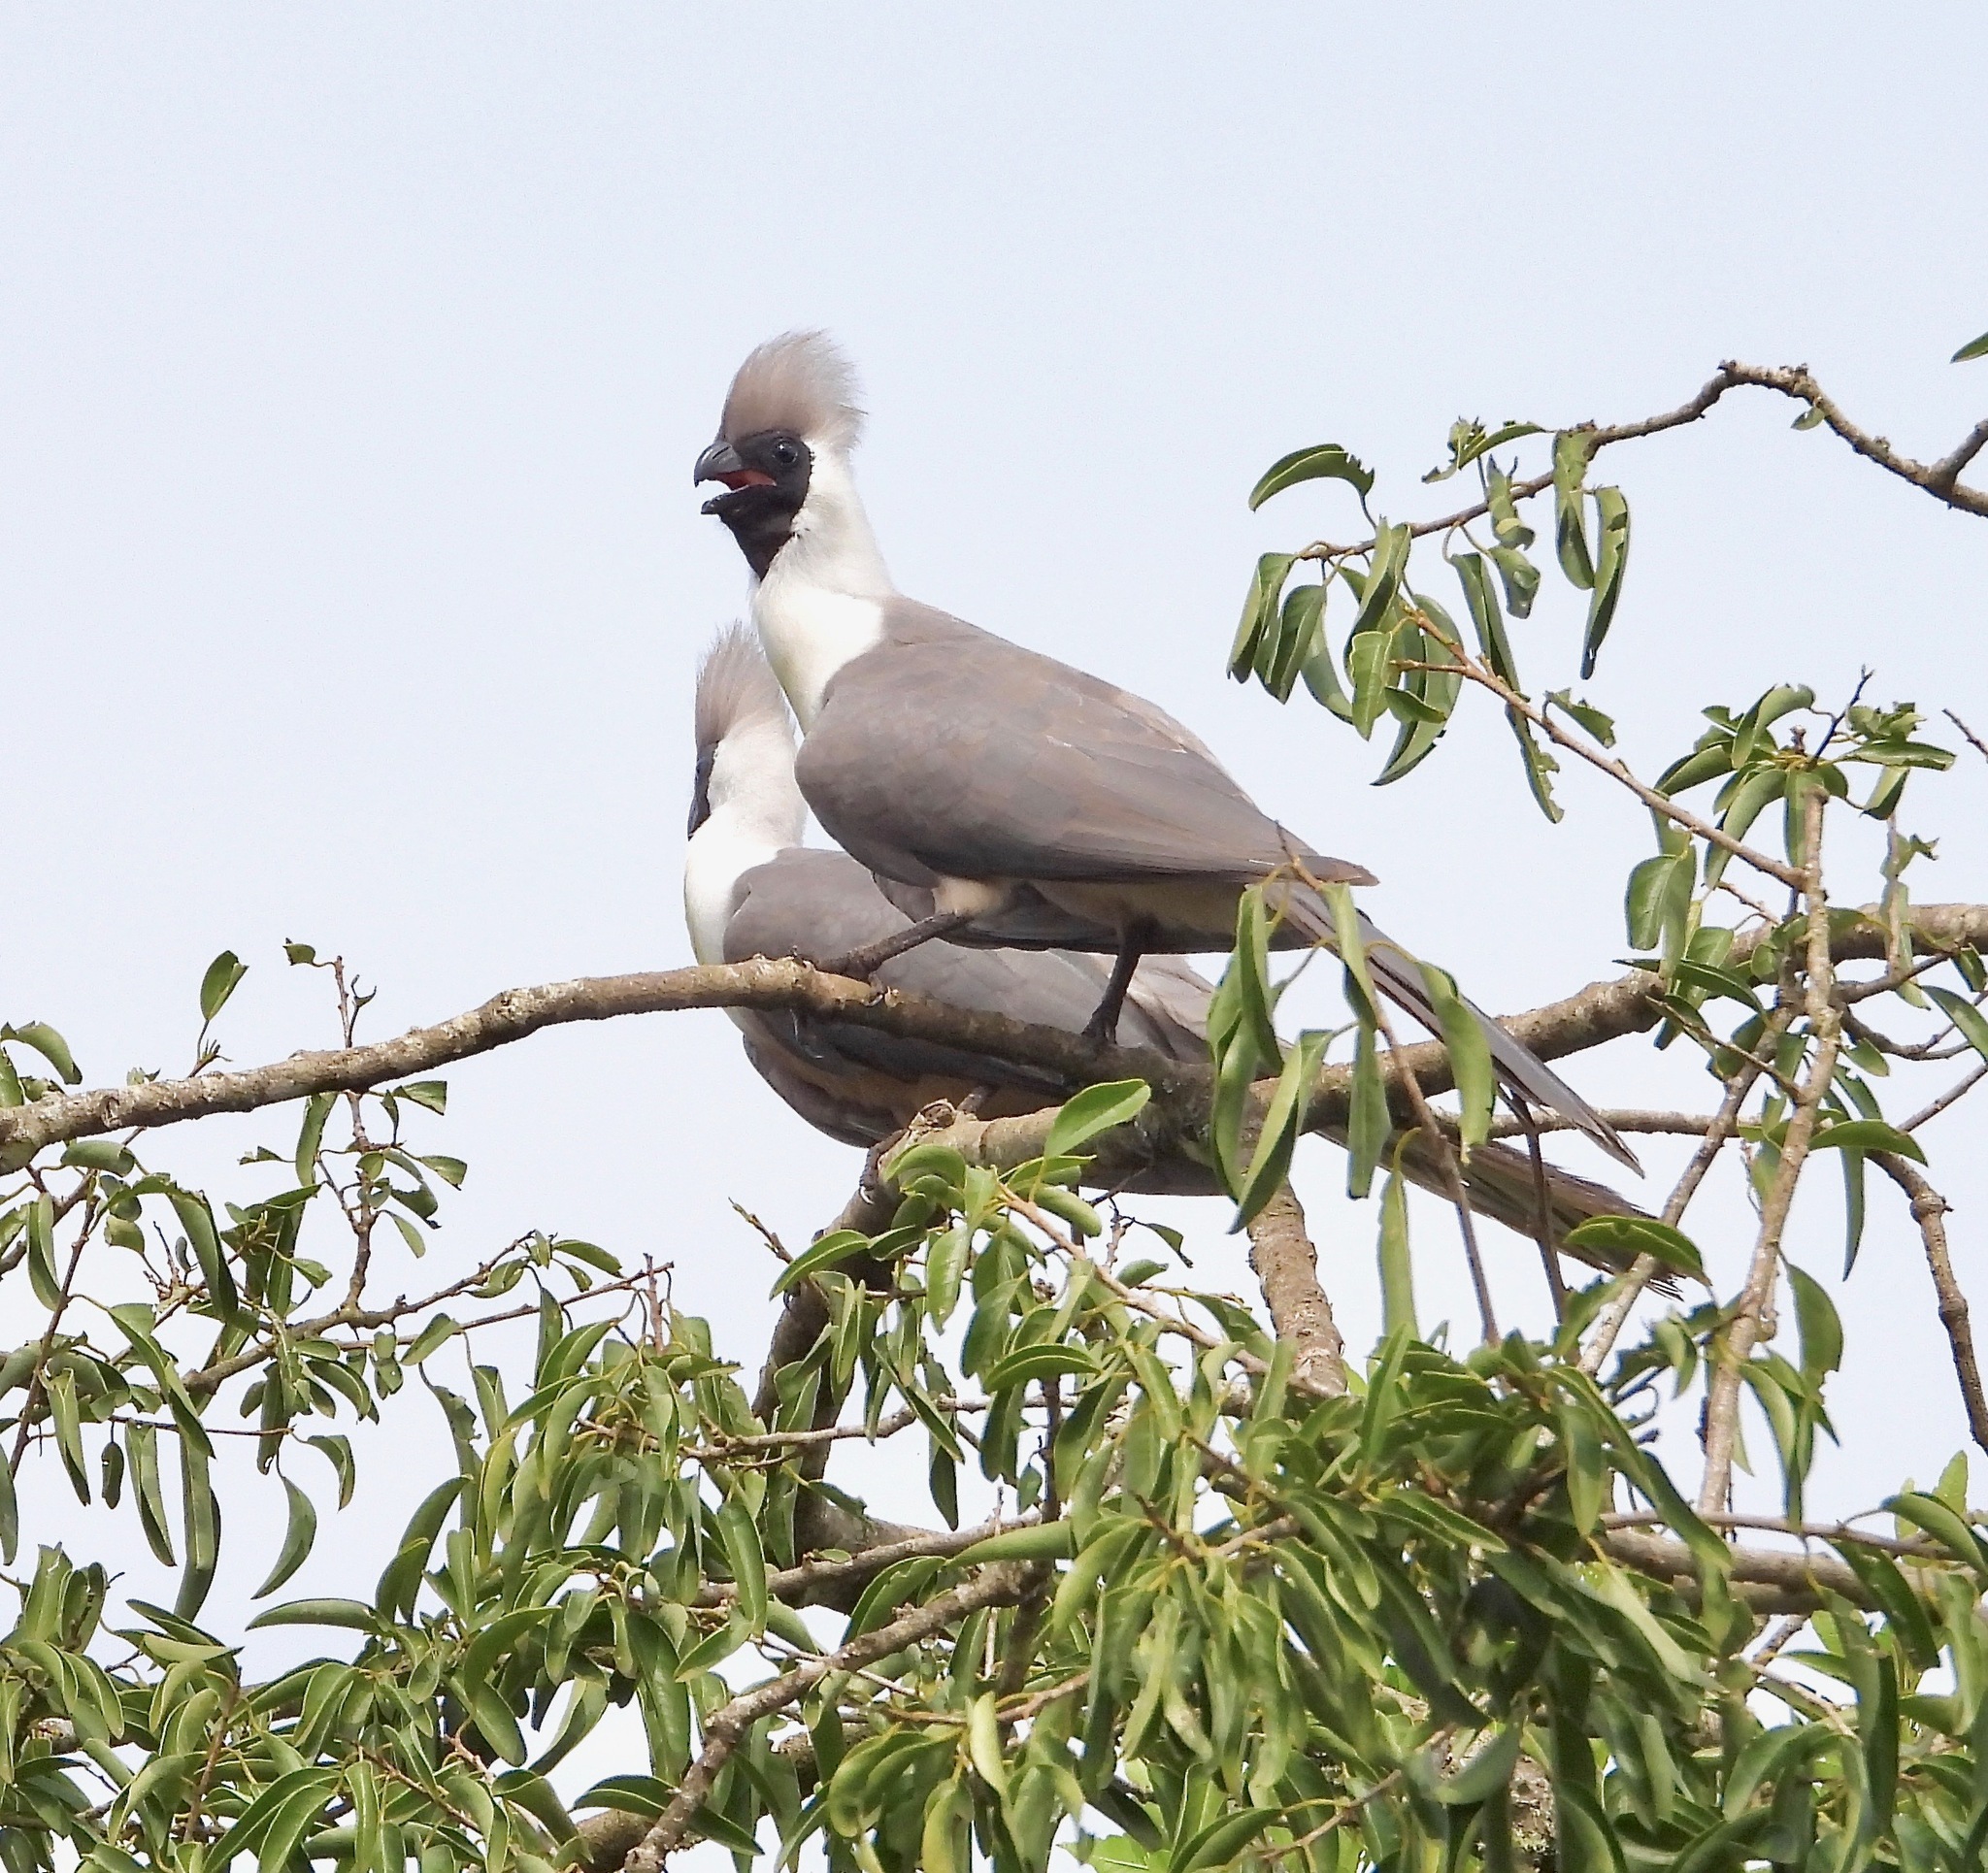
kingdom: Animalia
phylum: Chordata
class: Aves
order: Musophagiformes
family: Musophagidae
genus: Corythaixoides
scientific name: Corythaixoides personatus
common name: Bare-faced go-away-bird
